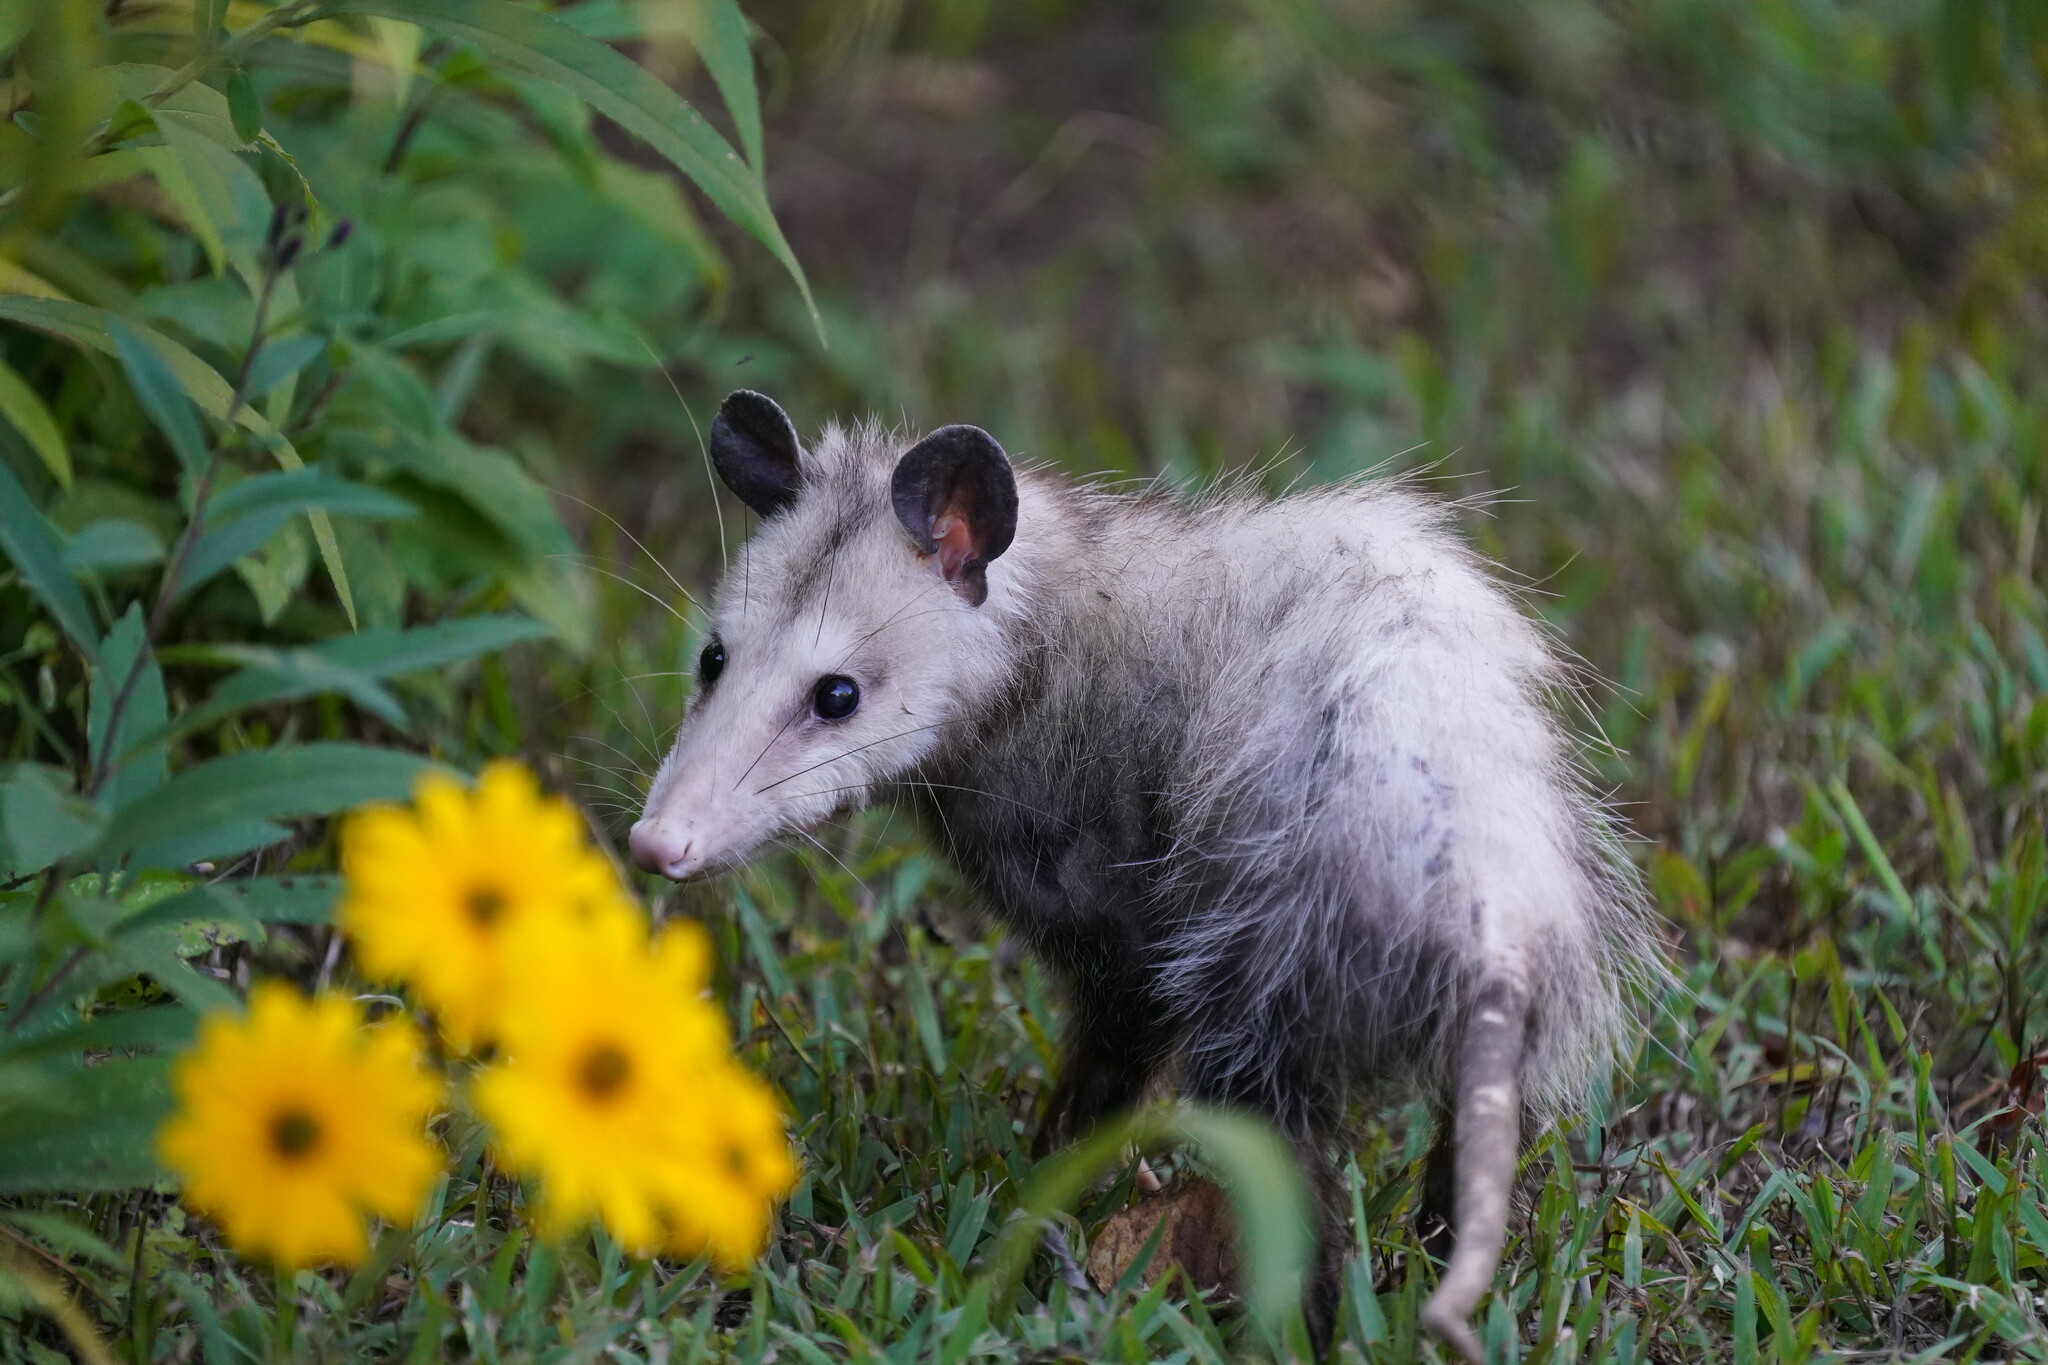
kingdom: Animalia
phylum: Chordata
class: Mammalia
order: Didelphimorphia
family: Didelphidae
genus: Didelphis
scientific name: Didelphis virginiana
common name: Virginia opossum
